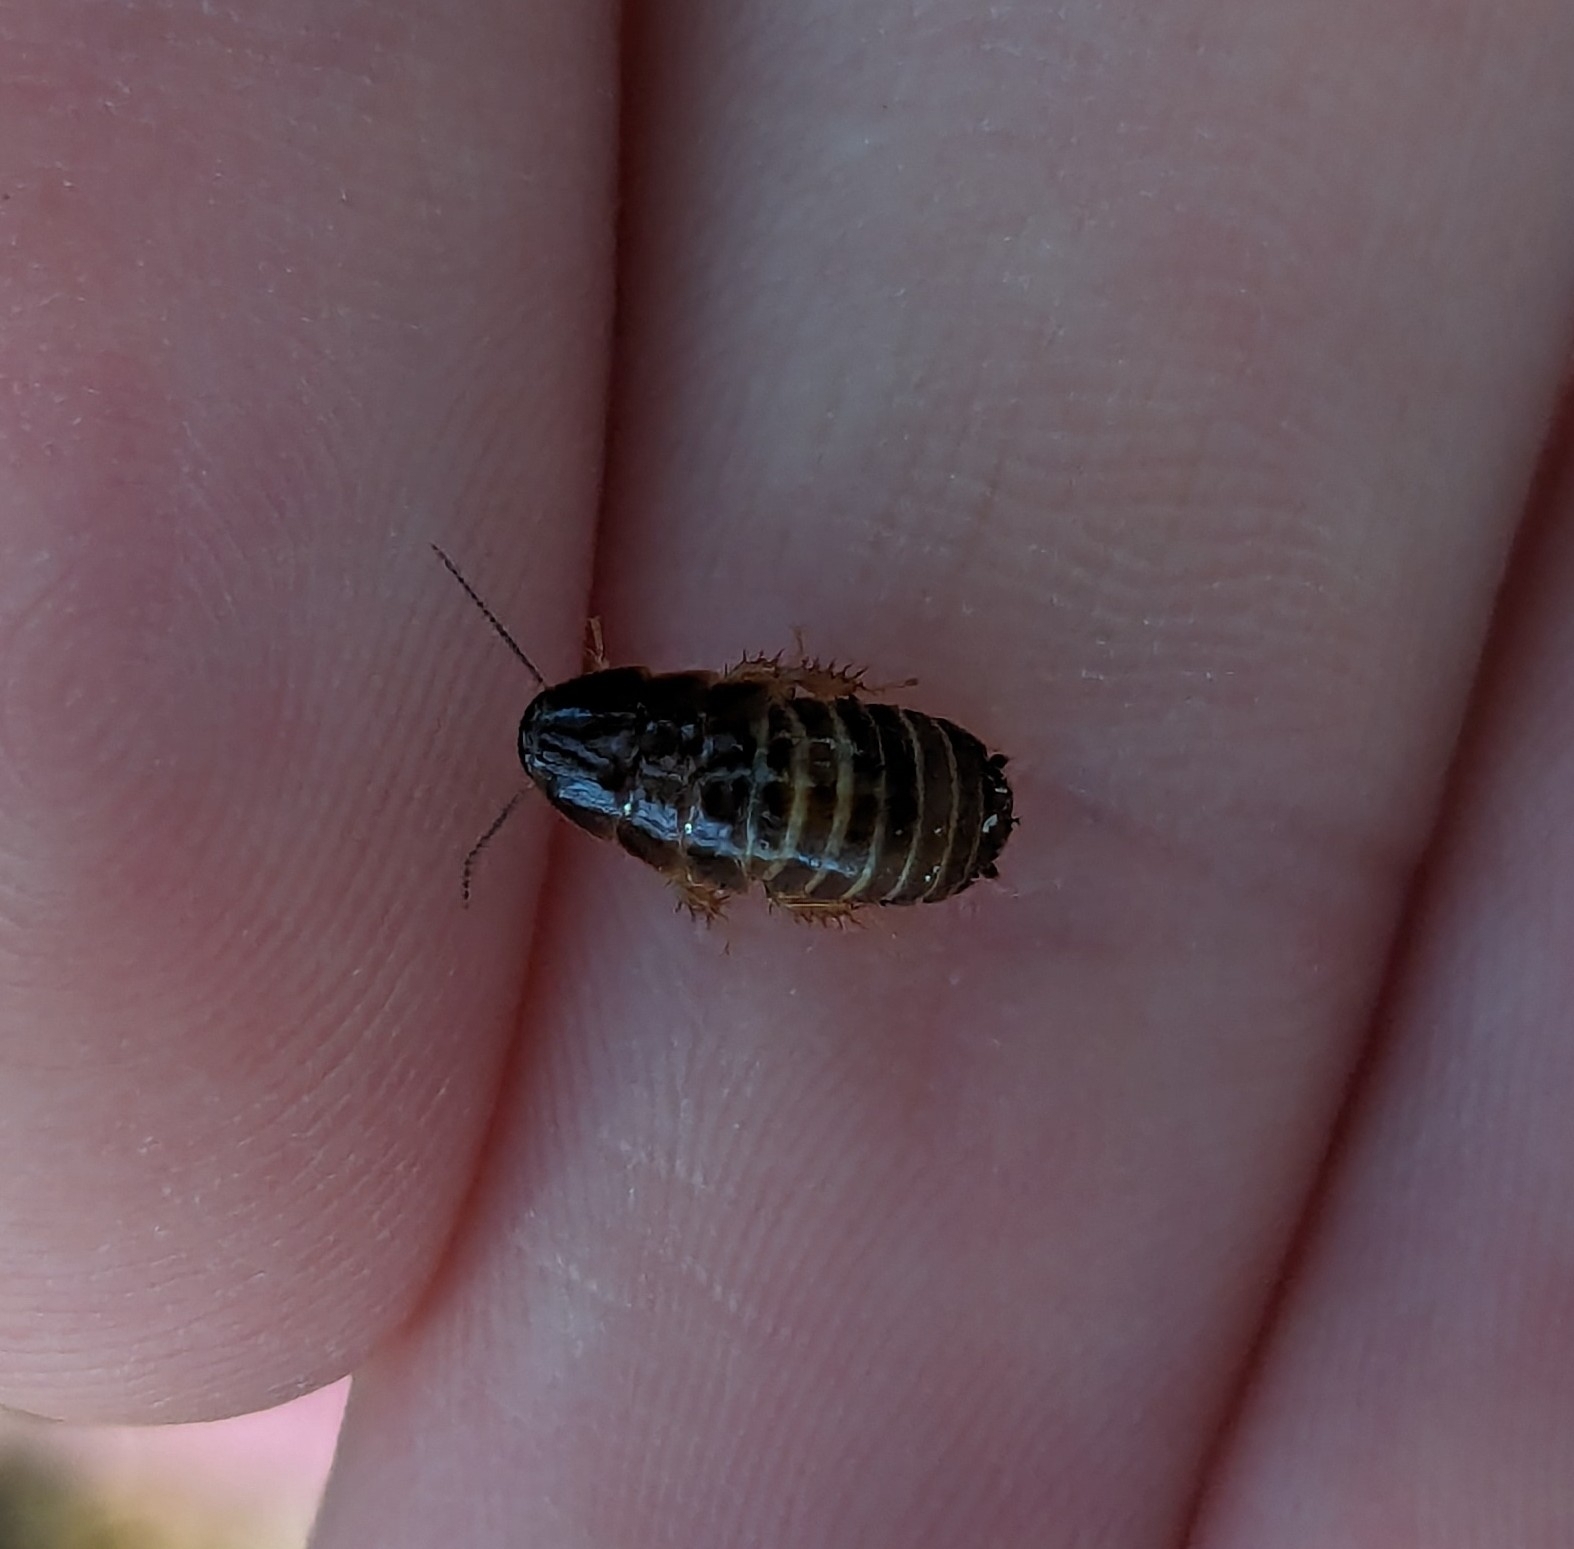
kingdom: Animalia
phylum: Arthropoda
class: Insecta
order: Blattodea
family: Blaberidae
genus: Pycnoscelus
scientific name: Pycnoscelus surinamensis
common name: Surinam cockroach
